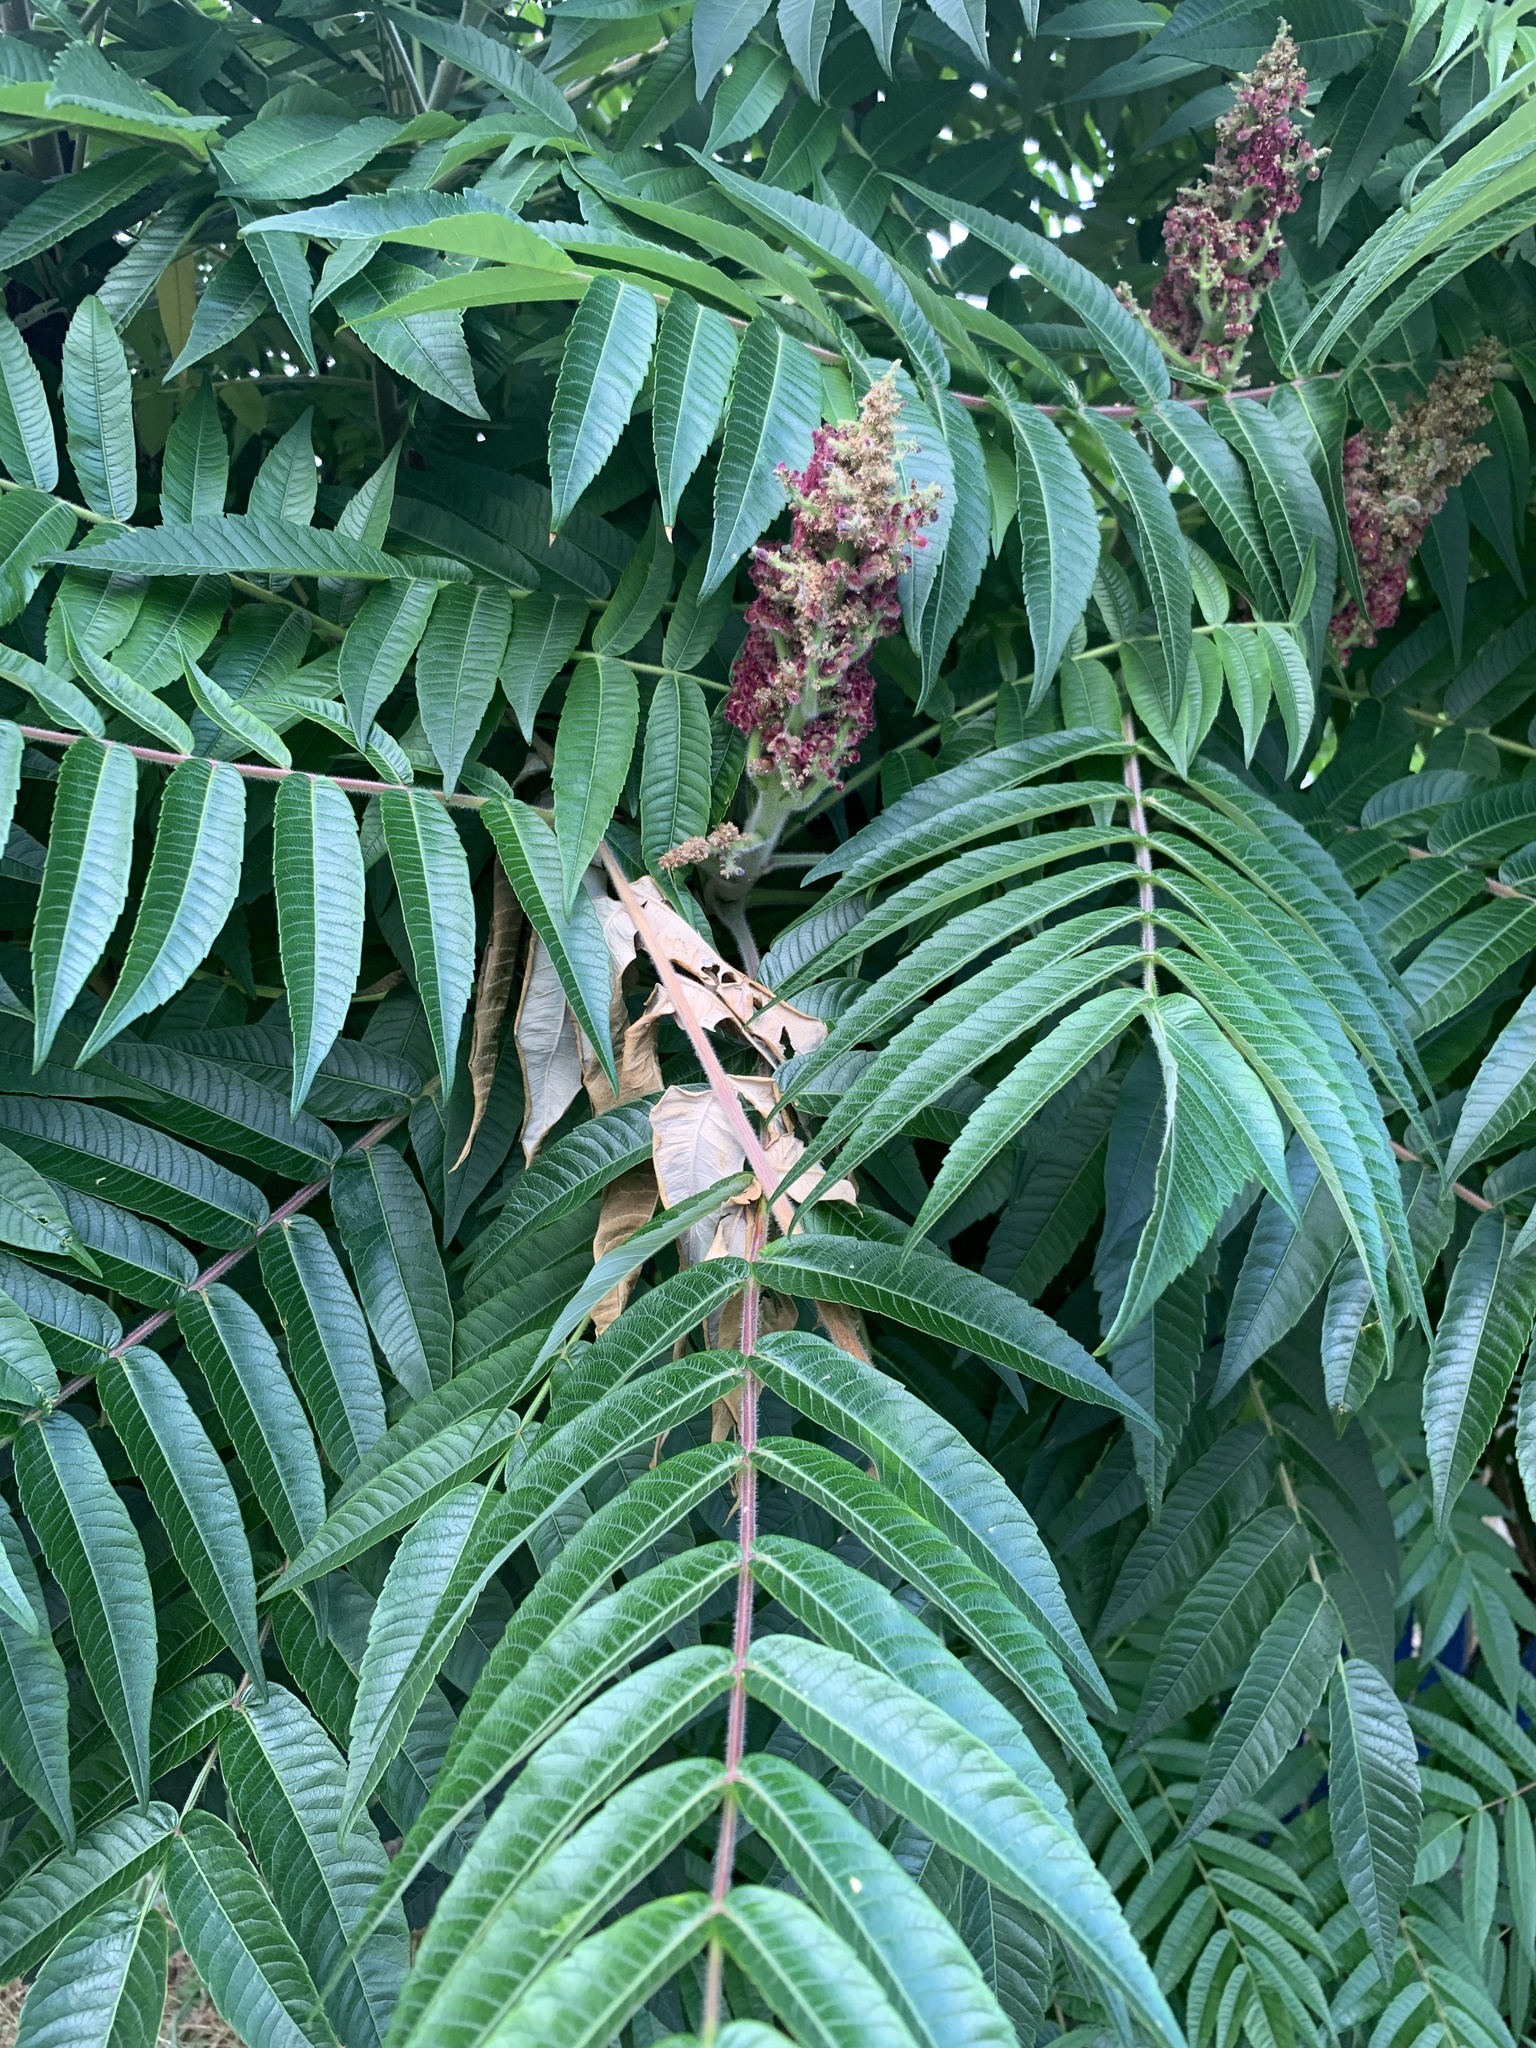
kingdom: Plantae
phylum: Tracheophyta
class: Magnoliopsida
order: Sapindales
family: Anacardiaceae
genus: Rhus
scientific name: Rhus typhina
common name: Staghorn sumac
